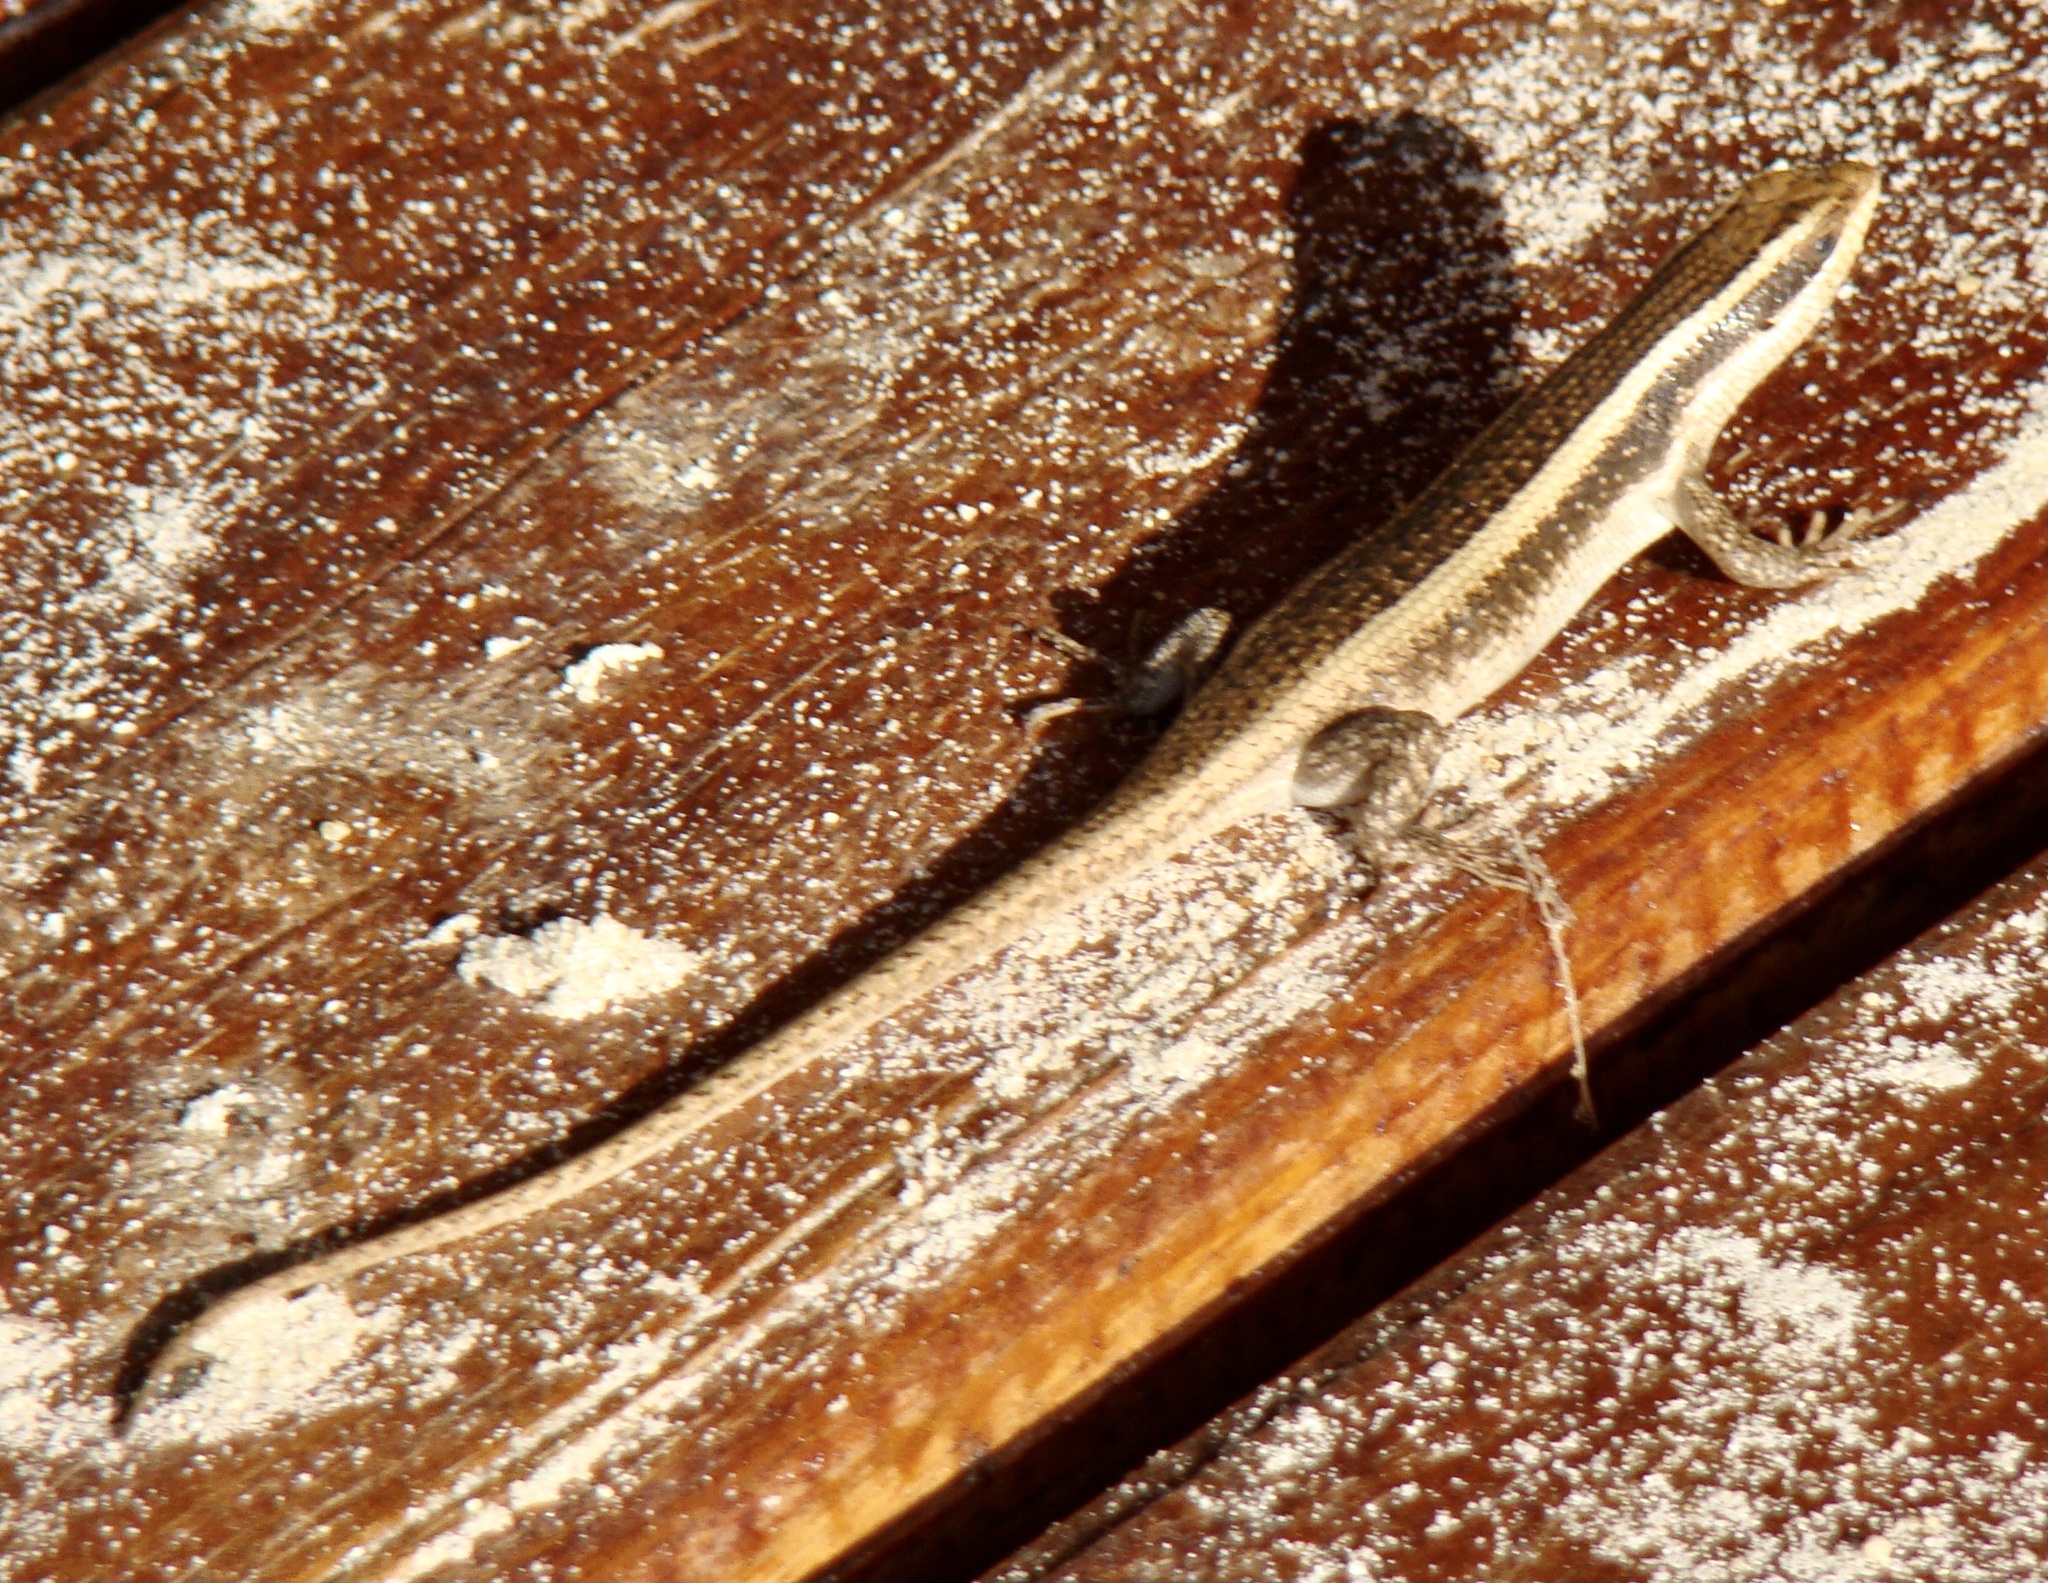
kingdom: Animalia
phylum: Chordata
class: Squamata
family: Scincidae
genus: Trachylepis
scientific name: Trachylepis striata
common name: African striped mabuya
